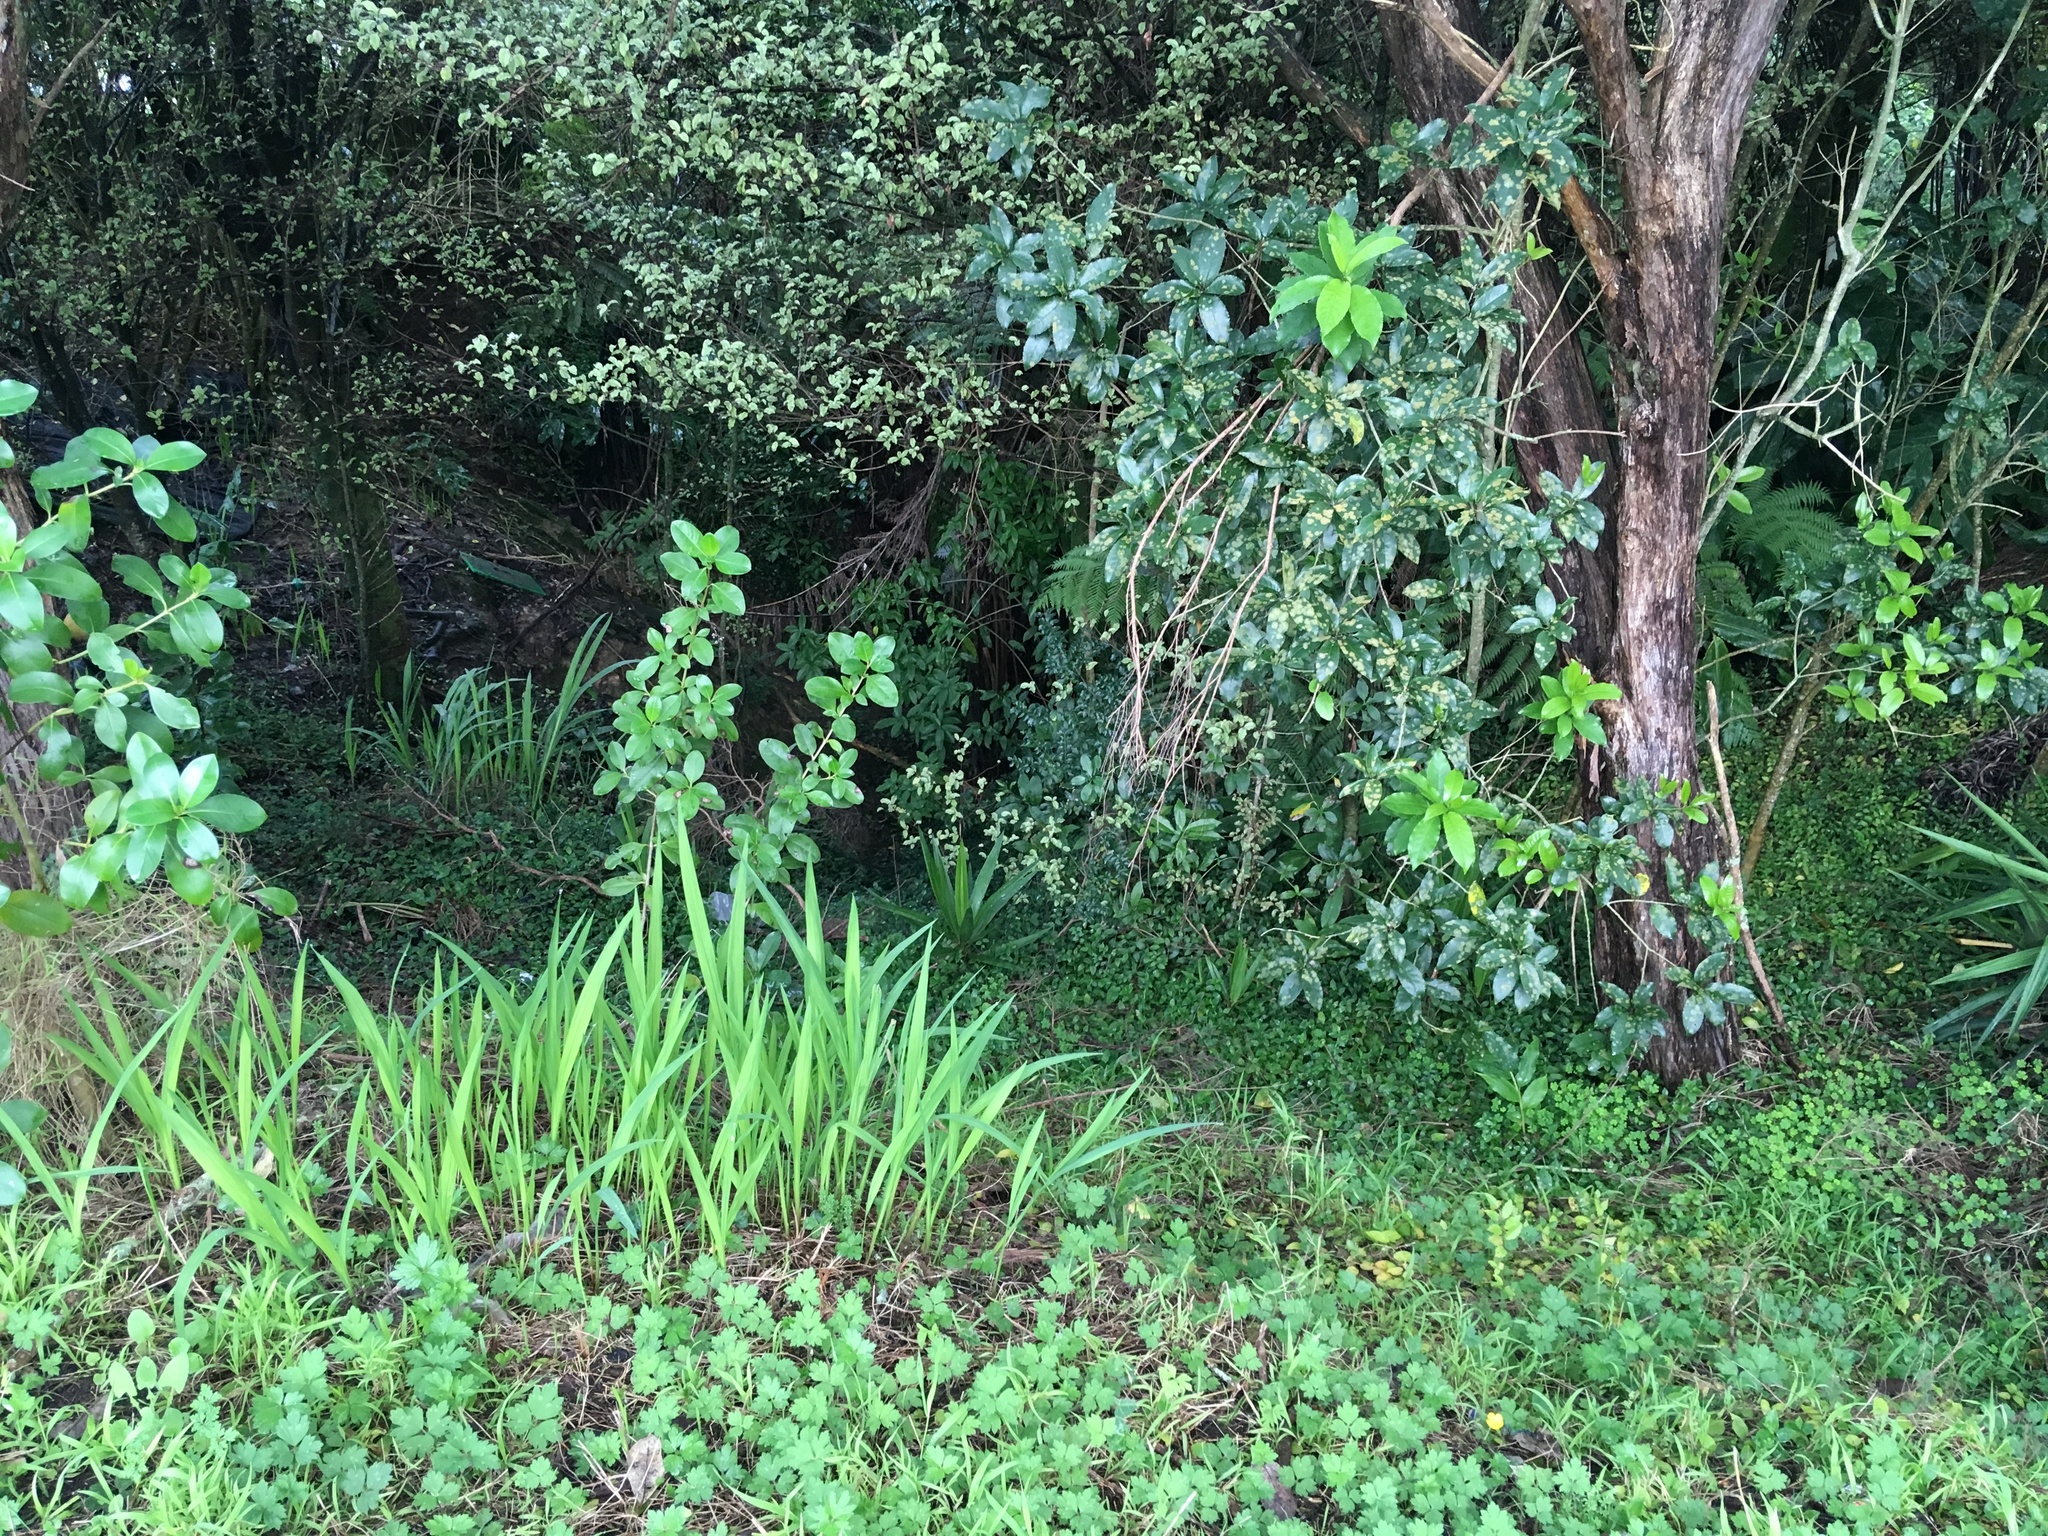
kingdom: Plantae
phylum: Tracheophyta
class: Liliopsida
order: Asparagales
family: Iridaceae
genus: Crocosmia
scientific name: Crocosmia crocosmiiflora
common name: Montbretia
